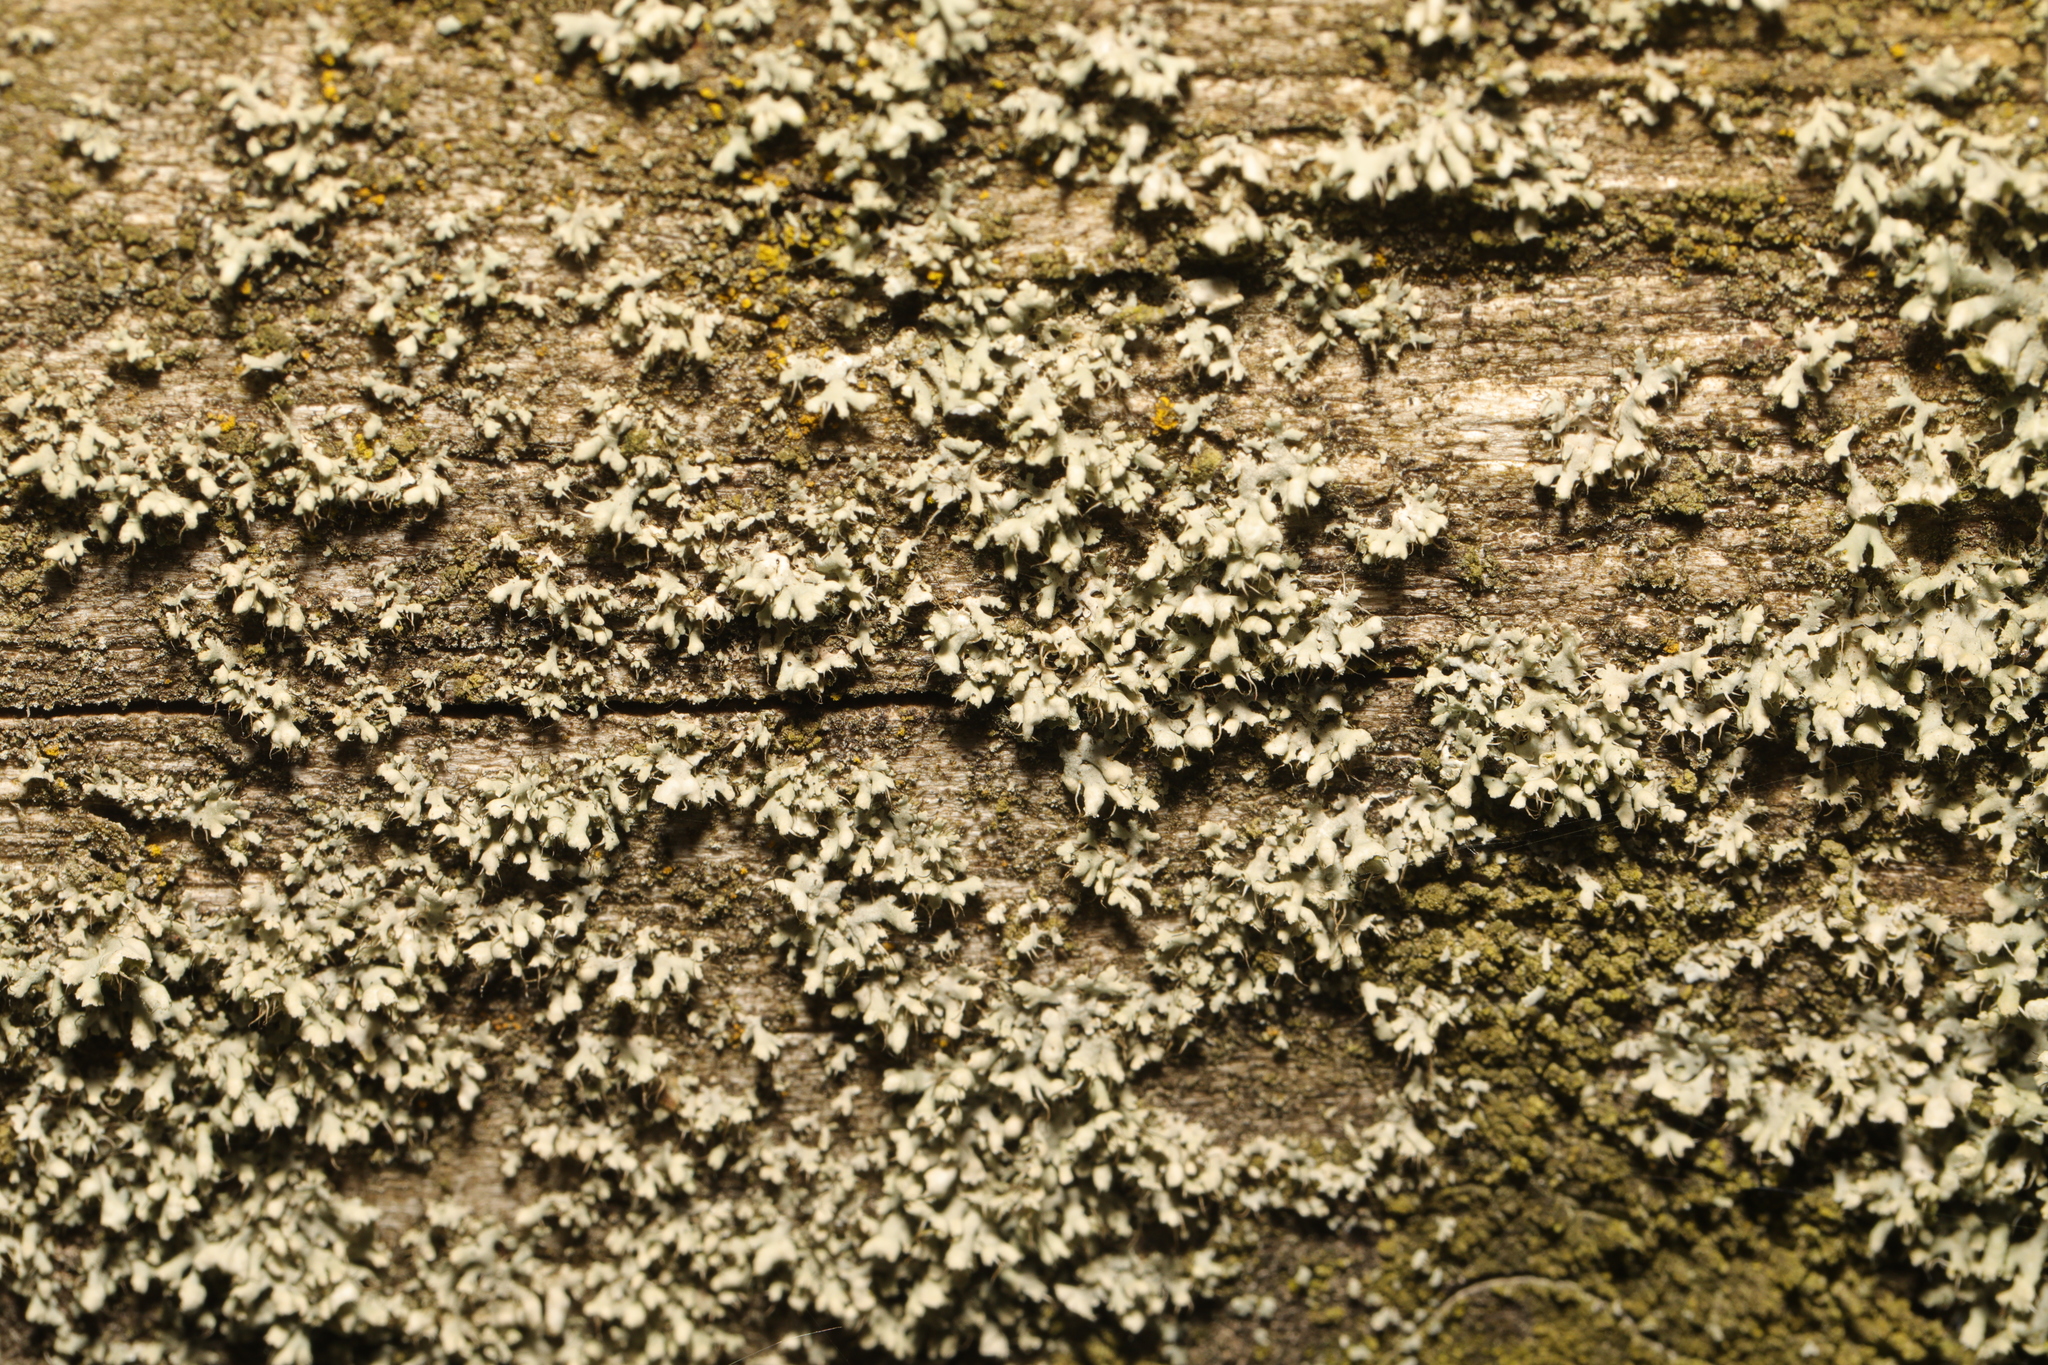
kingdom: Fungi
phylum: Ascomycota
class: Lecanoromycetes
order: Caliciales
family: Physciaceae
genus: Physcia
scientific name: Physcia adscendens
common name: Hooded rosette lichen
